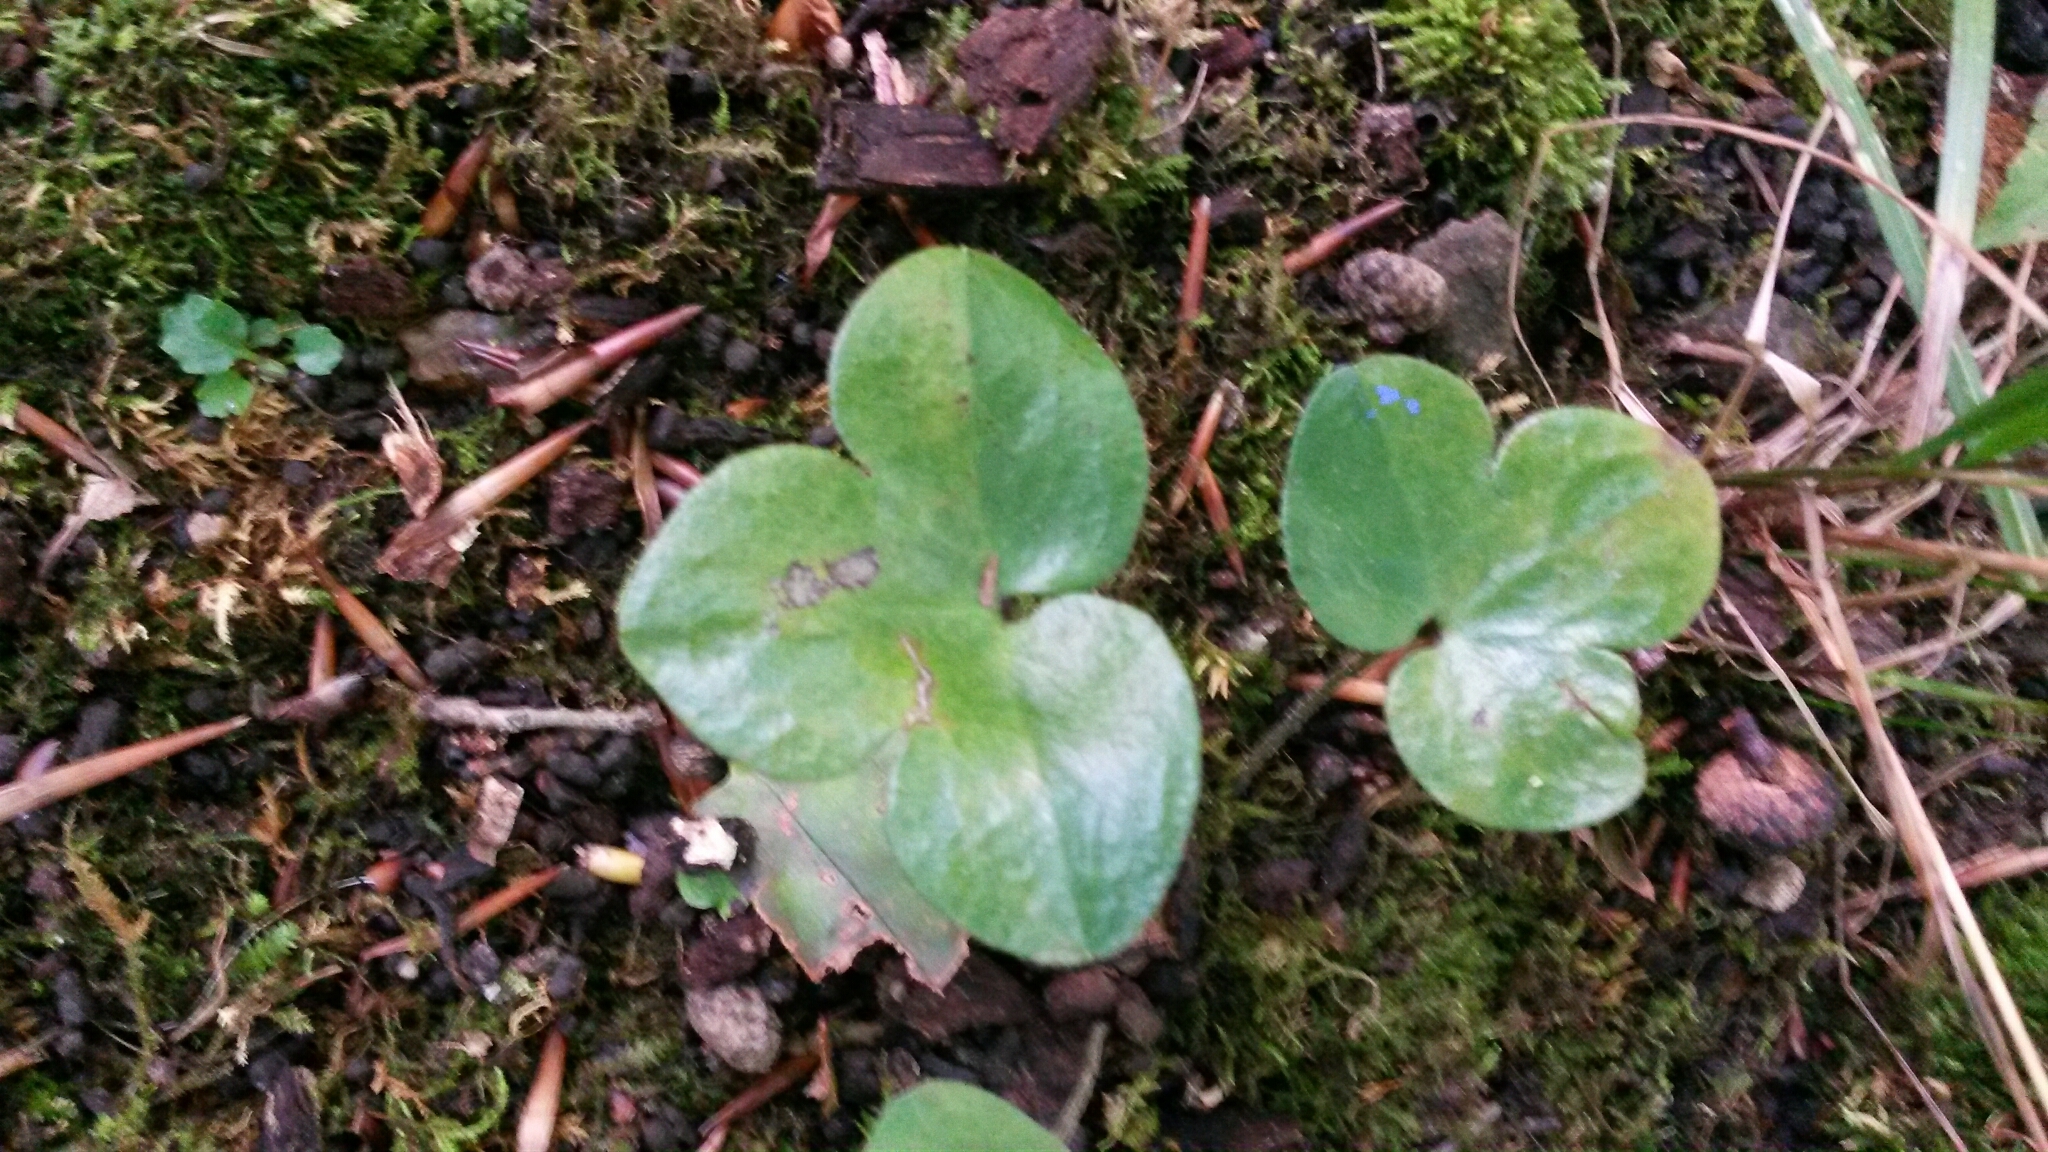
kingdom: Plantae
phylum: Tracheophyta
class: Magnoliopsida
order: Ranunculales
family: Ranunculaceae
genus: Hepatica
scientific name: Hepatica americana
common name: American hepatica
